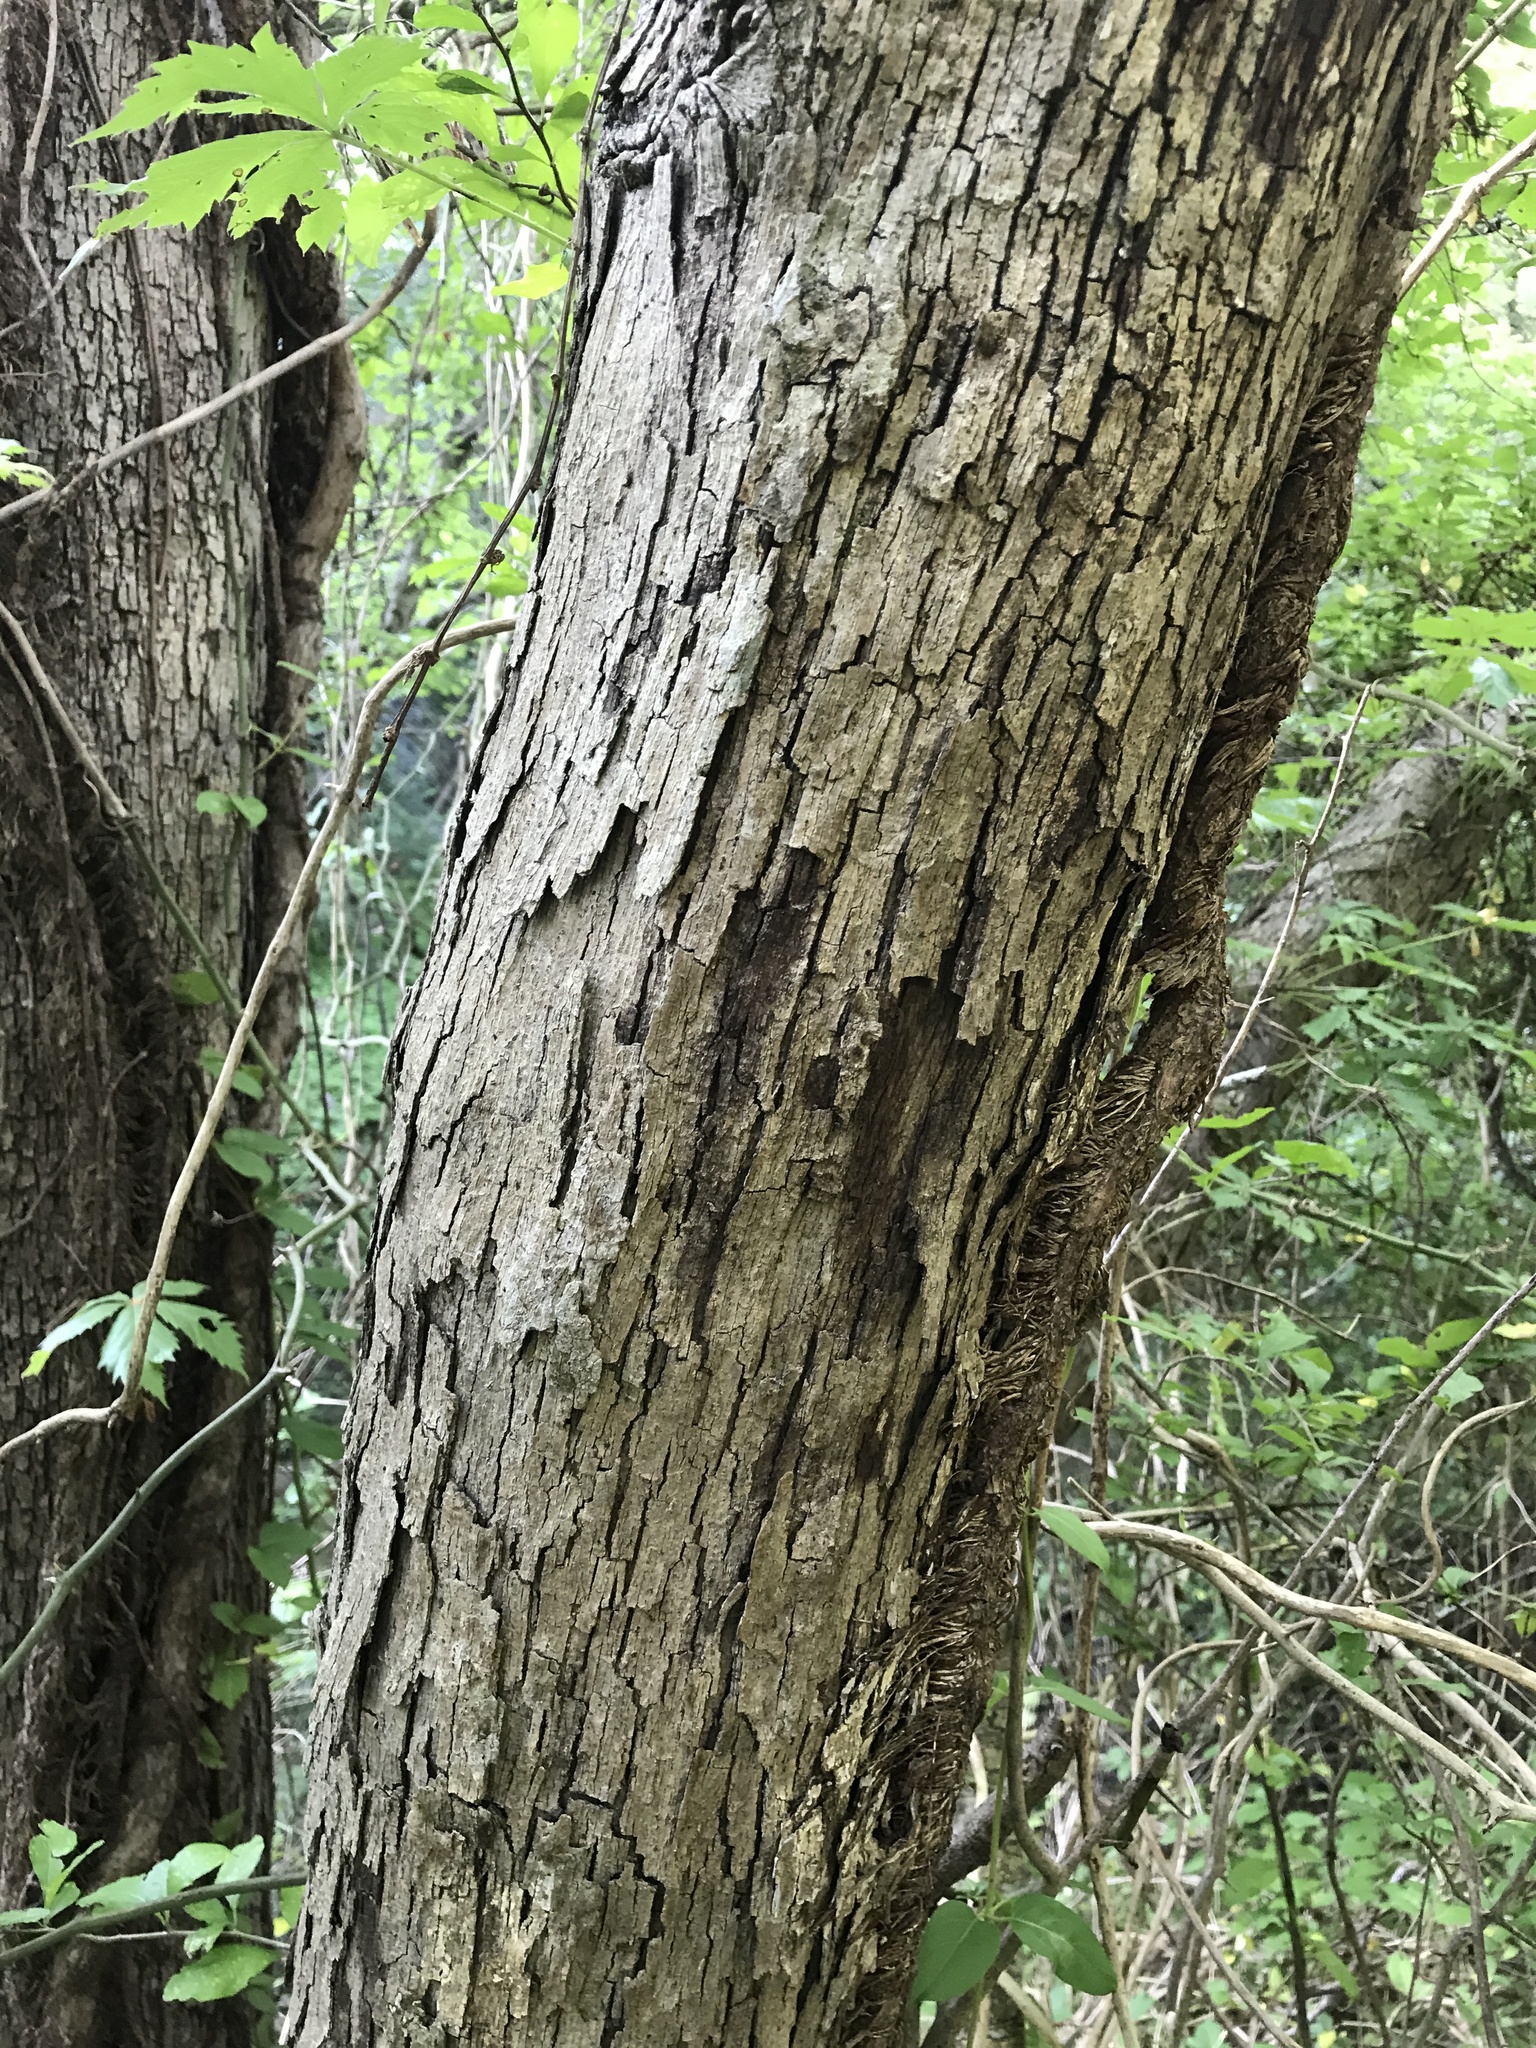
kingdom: Plantae
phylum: Tracheophyta
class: Magnoliopsida
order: Fagales
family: Fagaceae
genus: Quercus
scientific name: Quercus sinuata
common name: Durand oak
